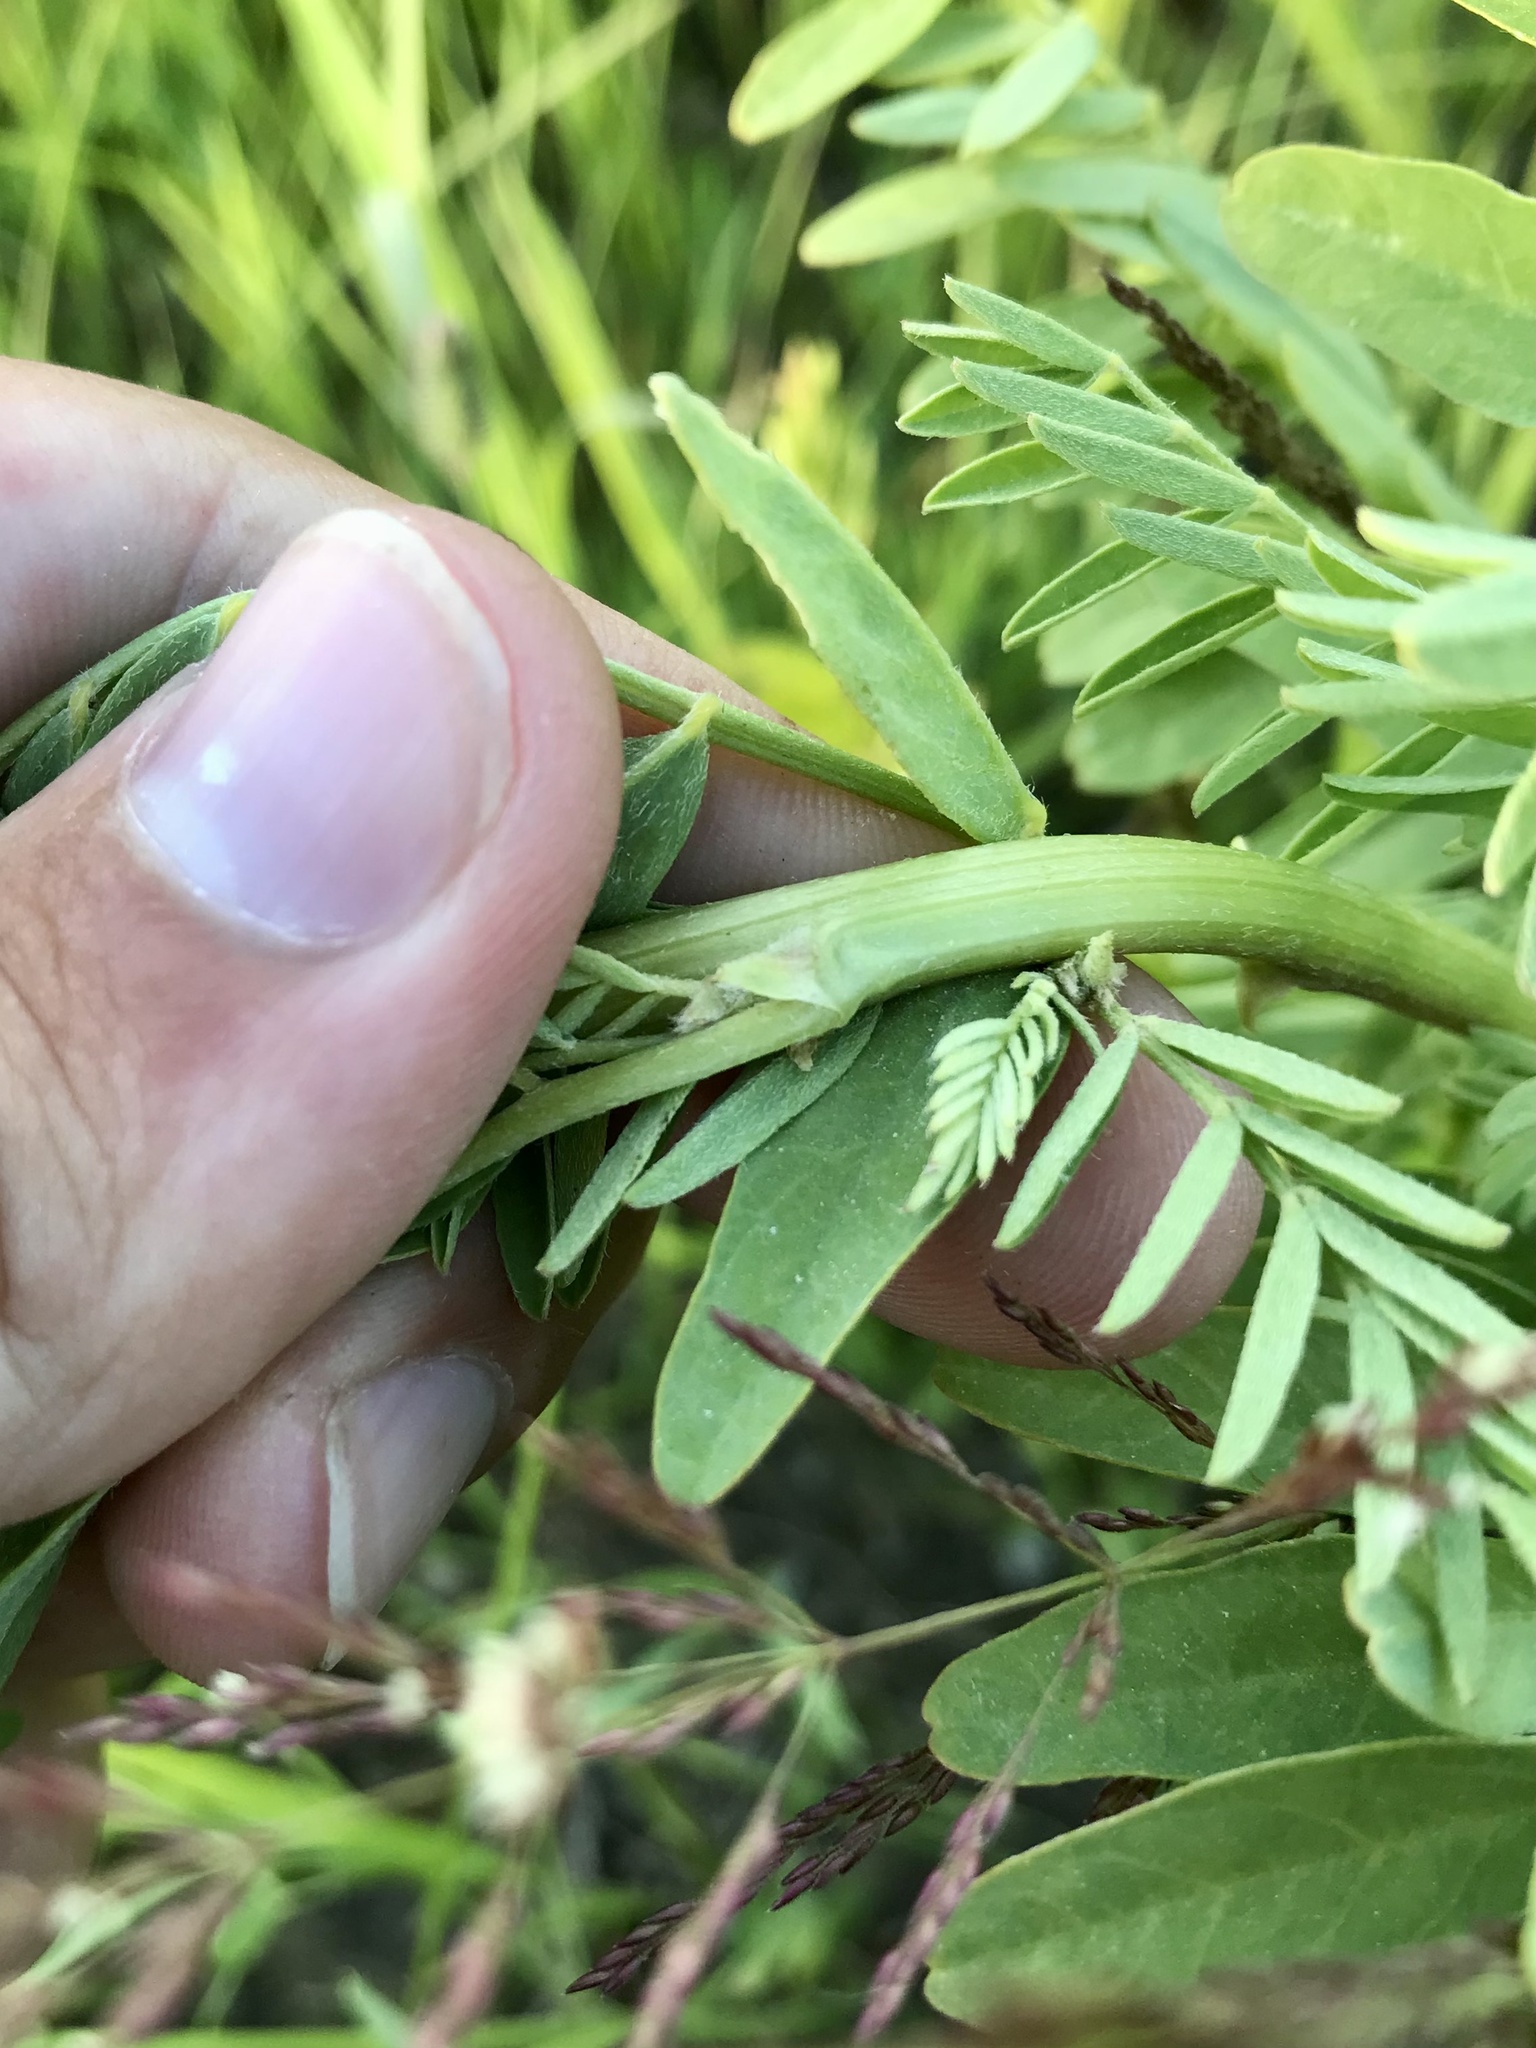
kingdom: Plantae
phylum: Tracheophyta
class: Magnoliopsida
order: Fabales
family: Fabaceae
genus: Astragalus
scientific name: Astragalus neglectus
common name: Cooper's milk-vetch
